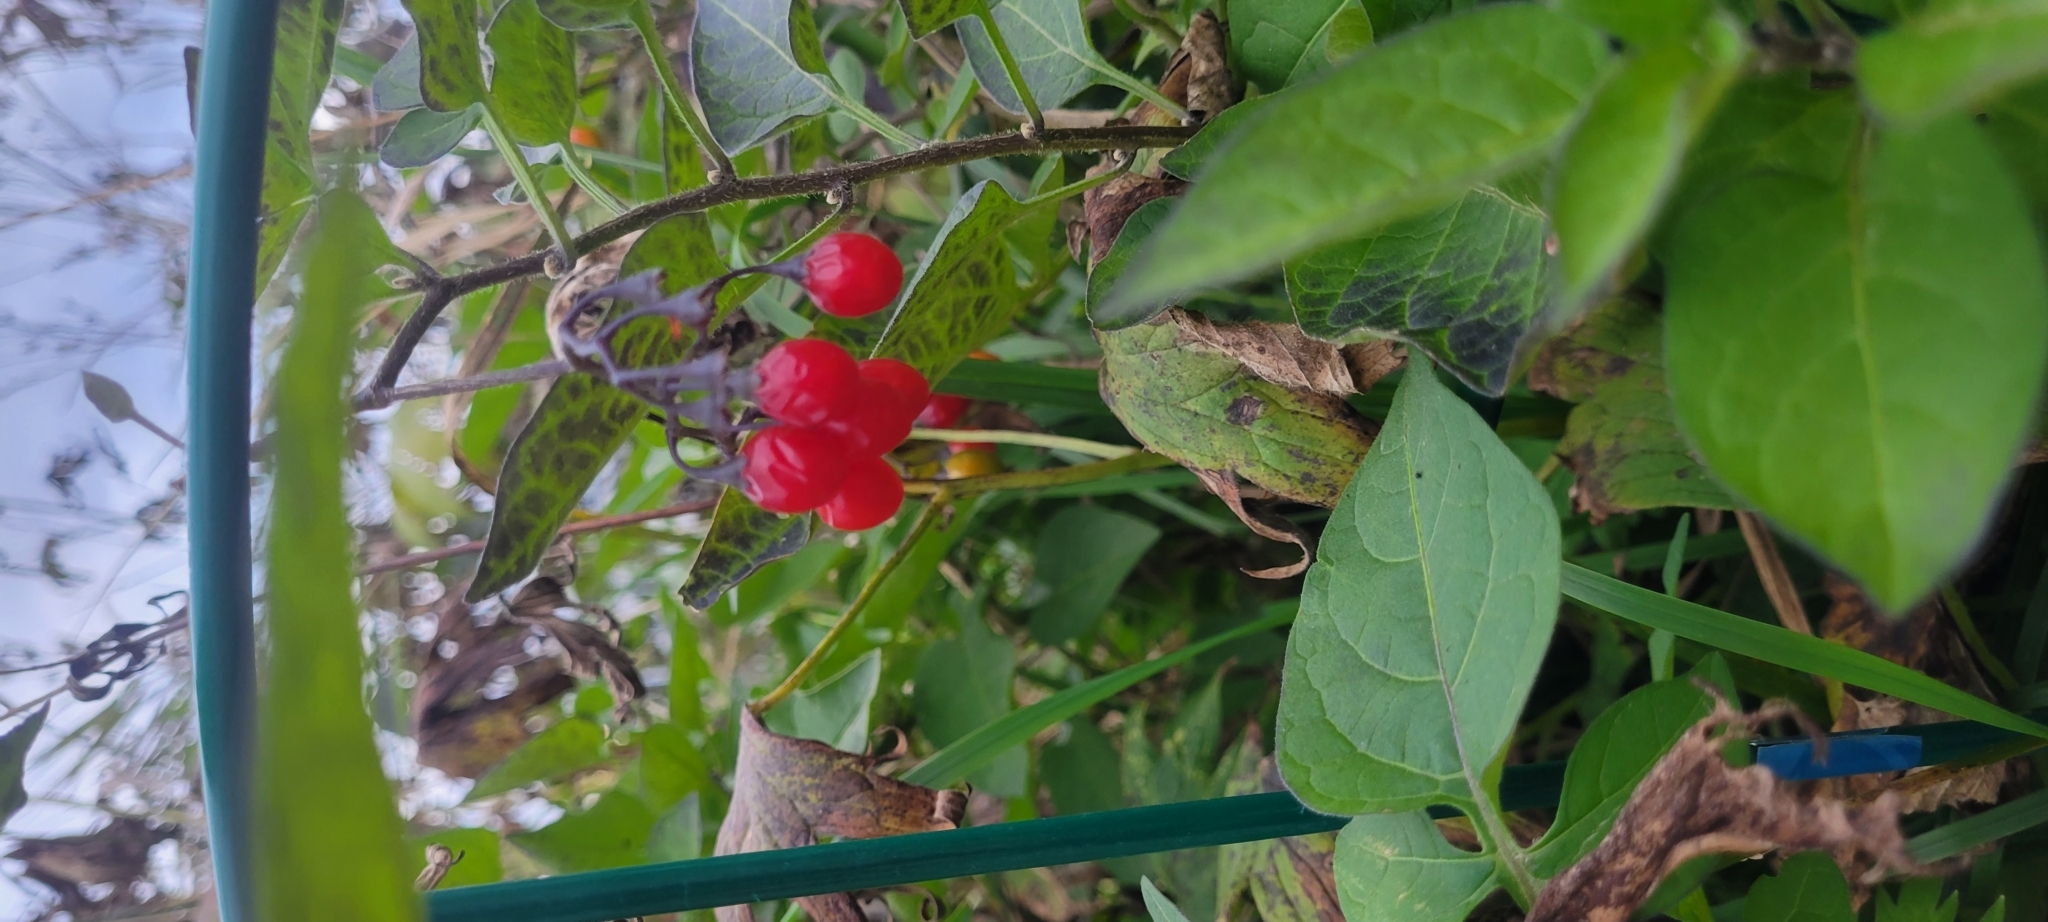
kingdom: Plantae
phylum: Tracheophyta
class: Magnoliopsida
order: Solanales
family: Solanaceae
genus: Solanum
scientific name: Solanum dulcamara
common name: Climbing nightshade
